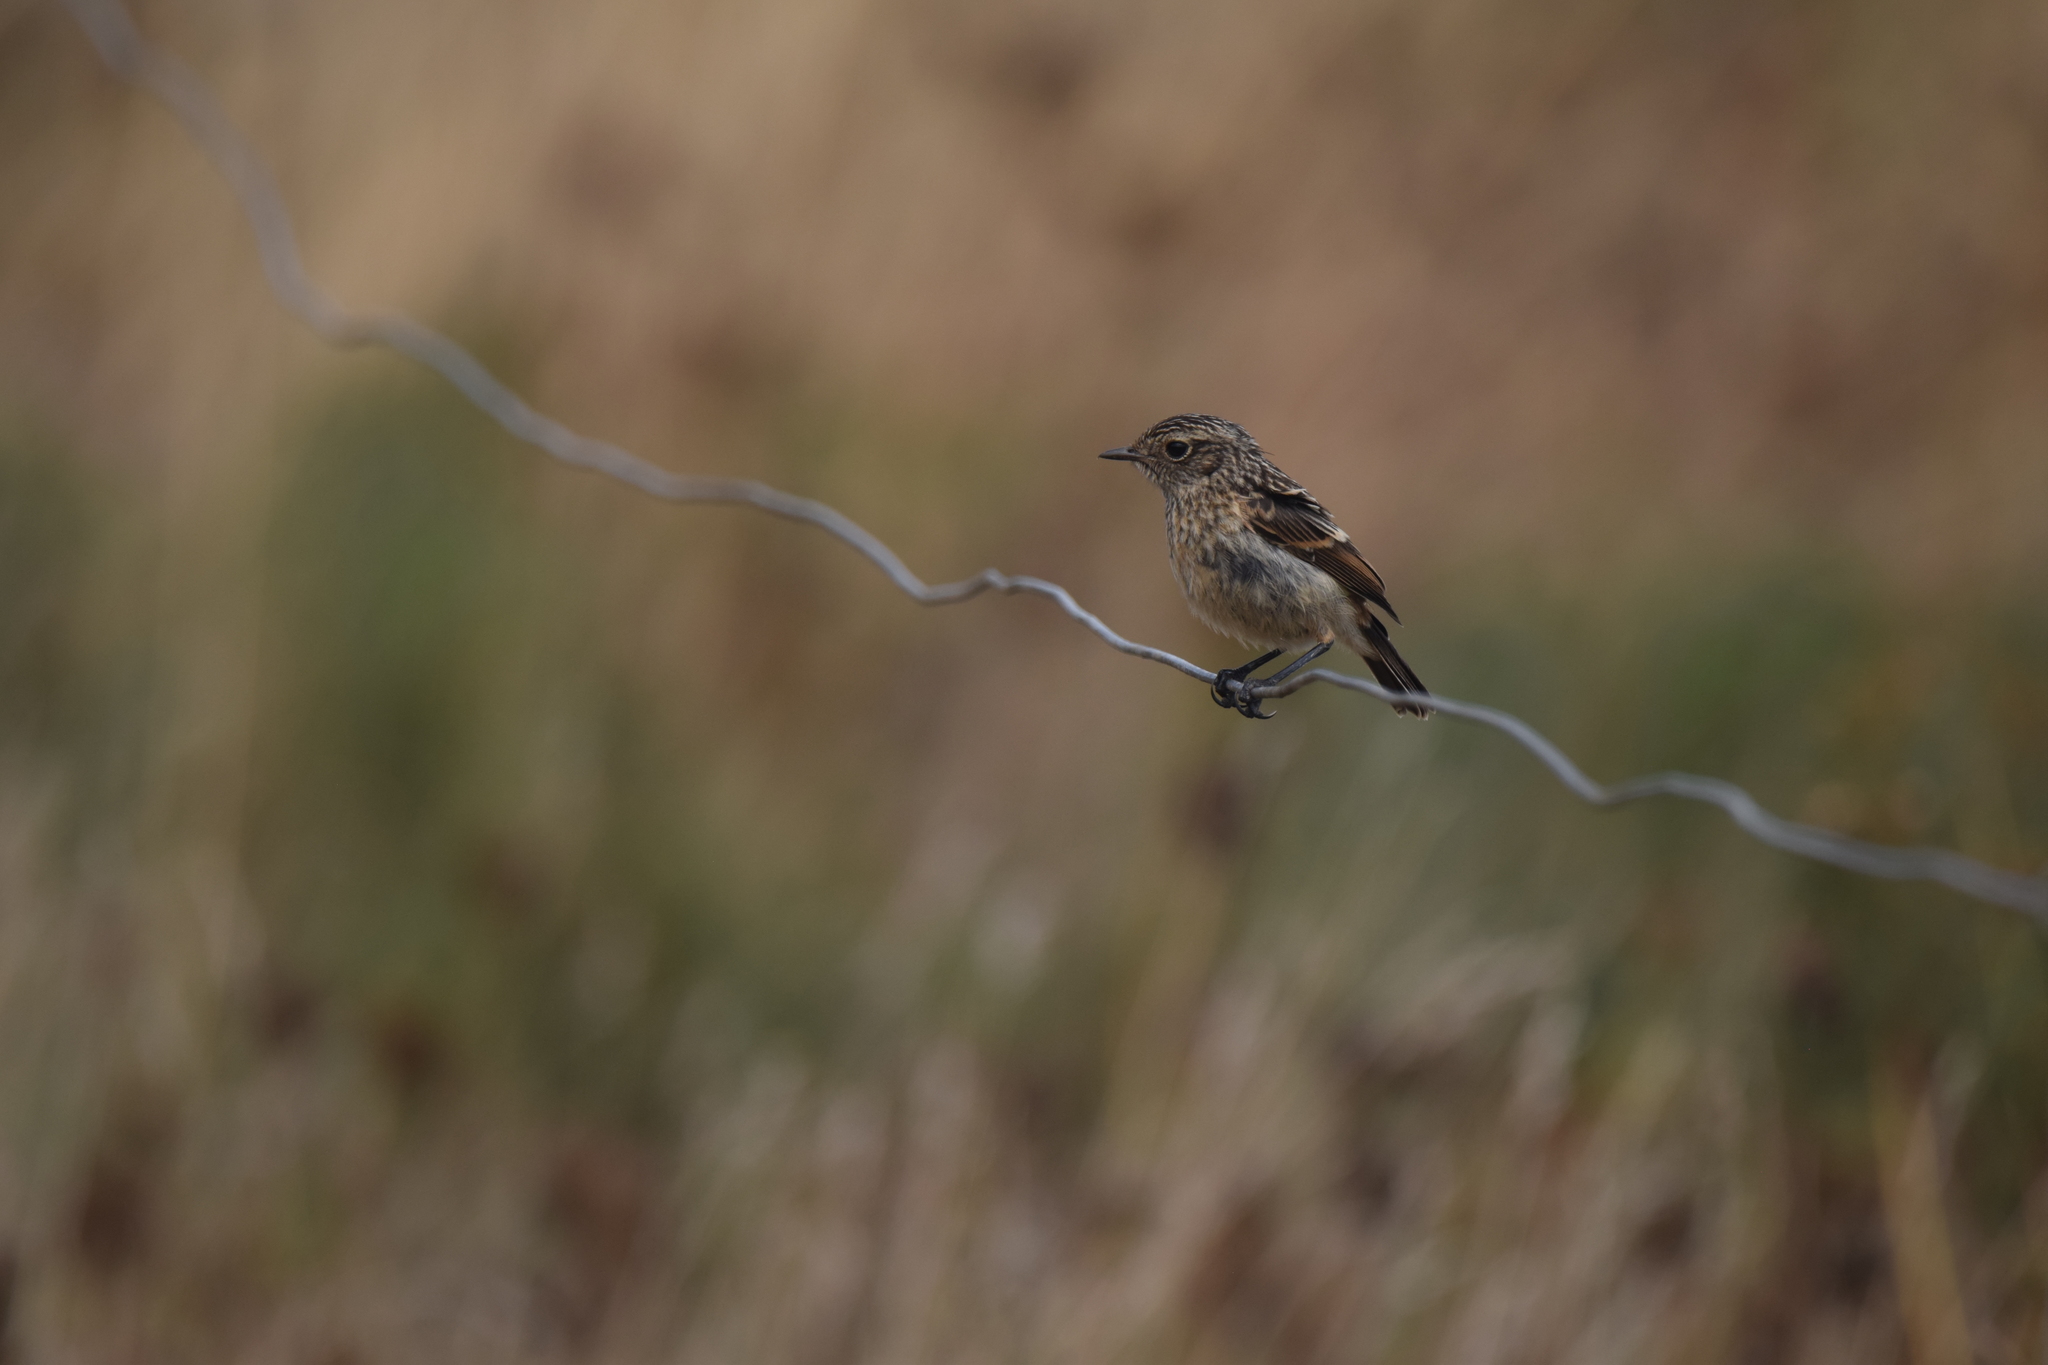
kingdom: Animalia
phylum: Chordata
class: Aves
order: Passeriformes
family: Muscicapidae
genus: Saxicola
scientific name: Saxicola rubicola
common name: European stonechat
